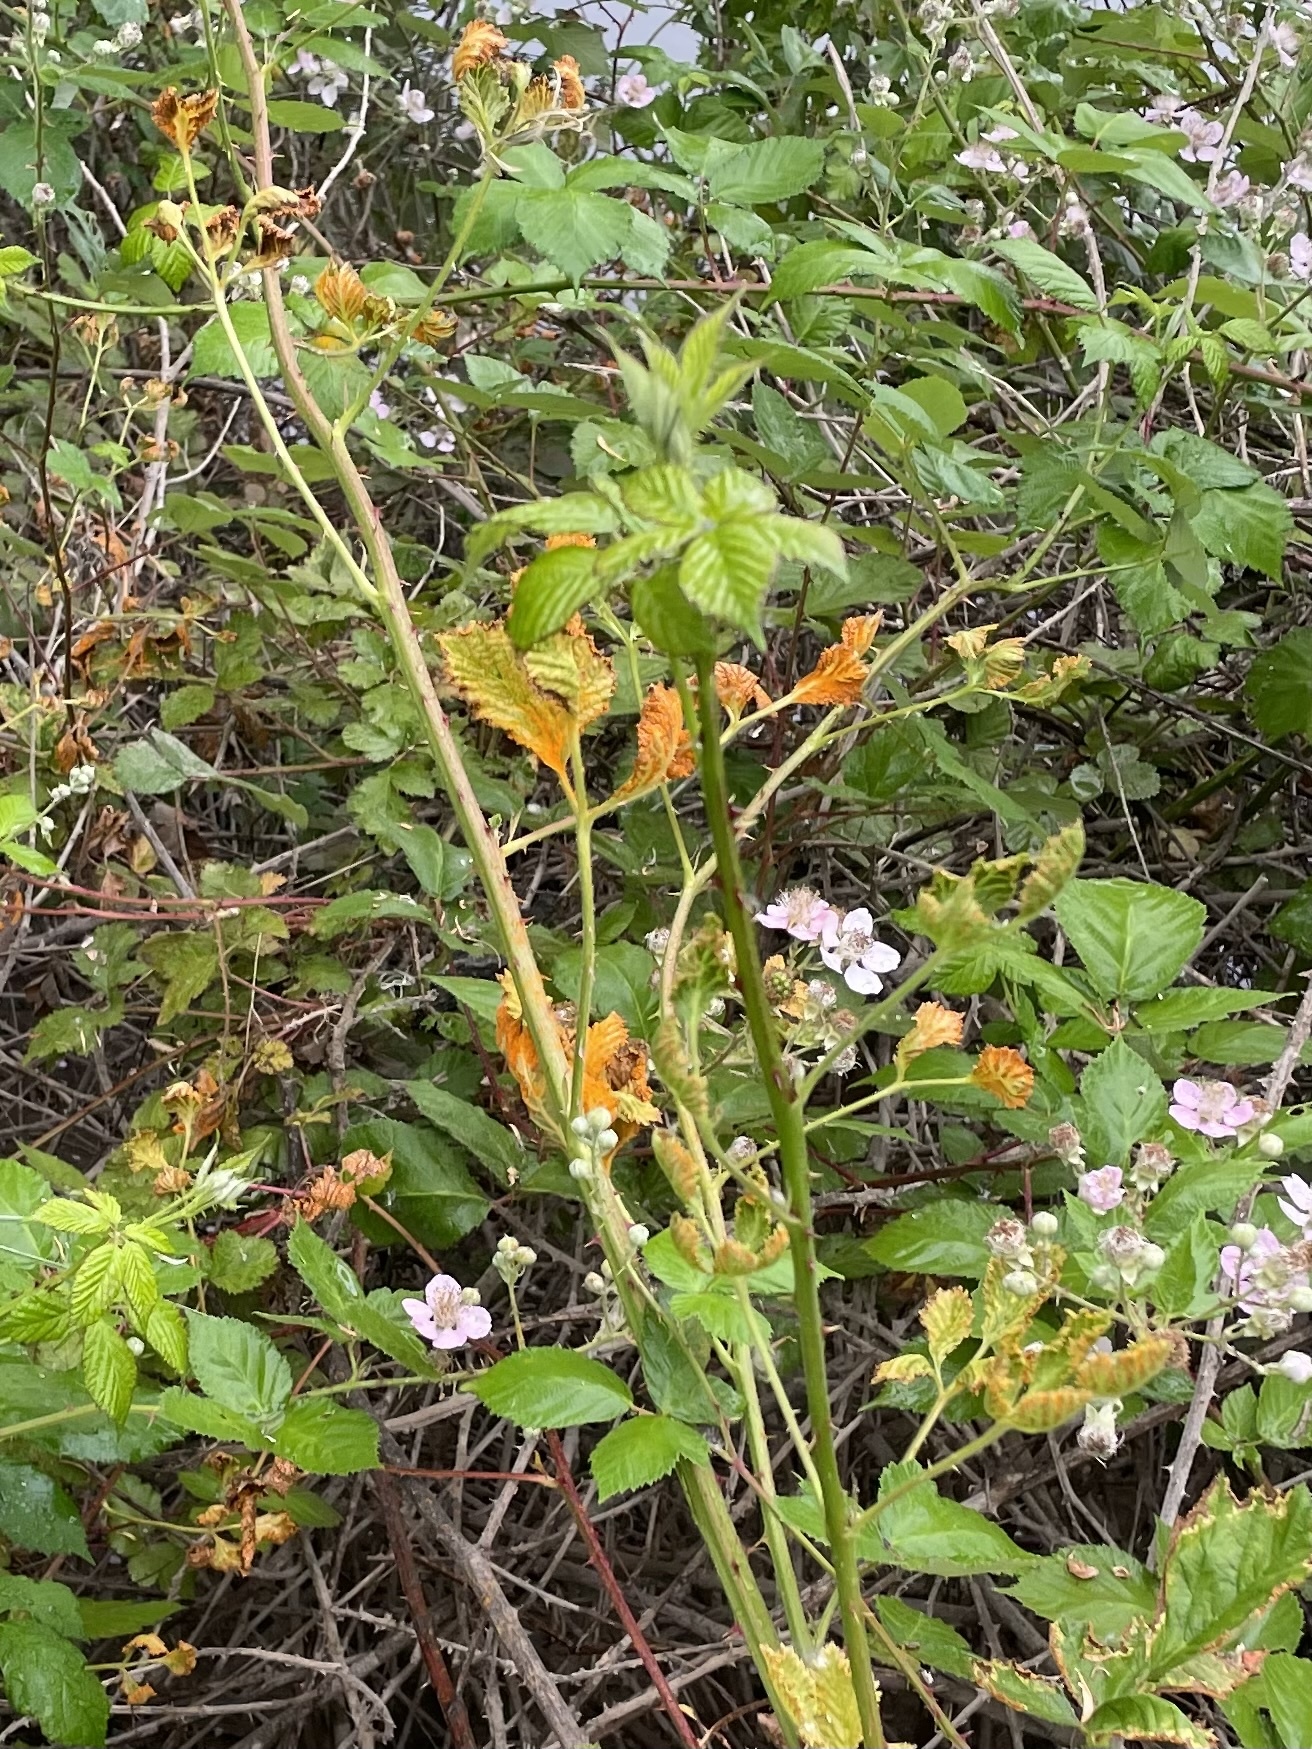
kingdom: Fungi
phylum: Basidiomycota
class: Pucciniomycetes
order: Pucciniales
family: Phragmidiaceae
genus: Arthuriomyces
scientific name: Arthuriomyces peckianus
